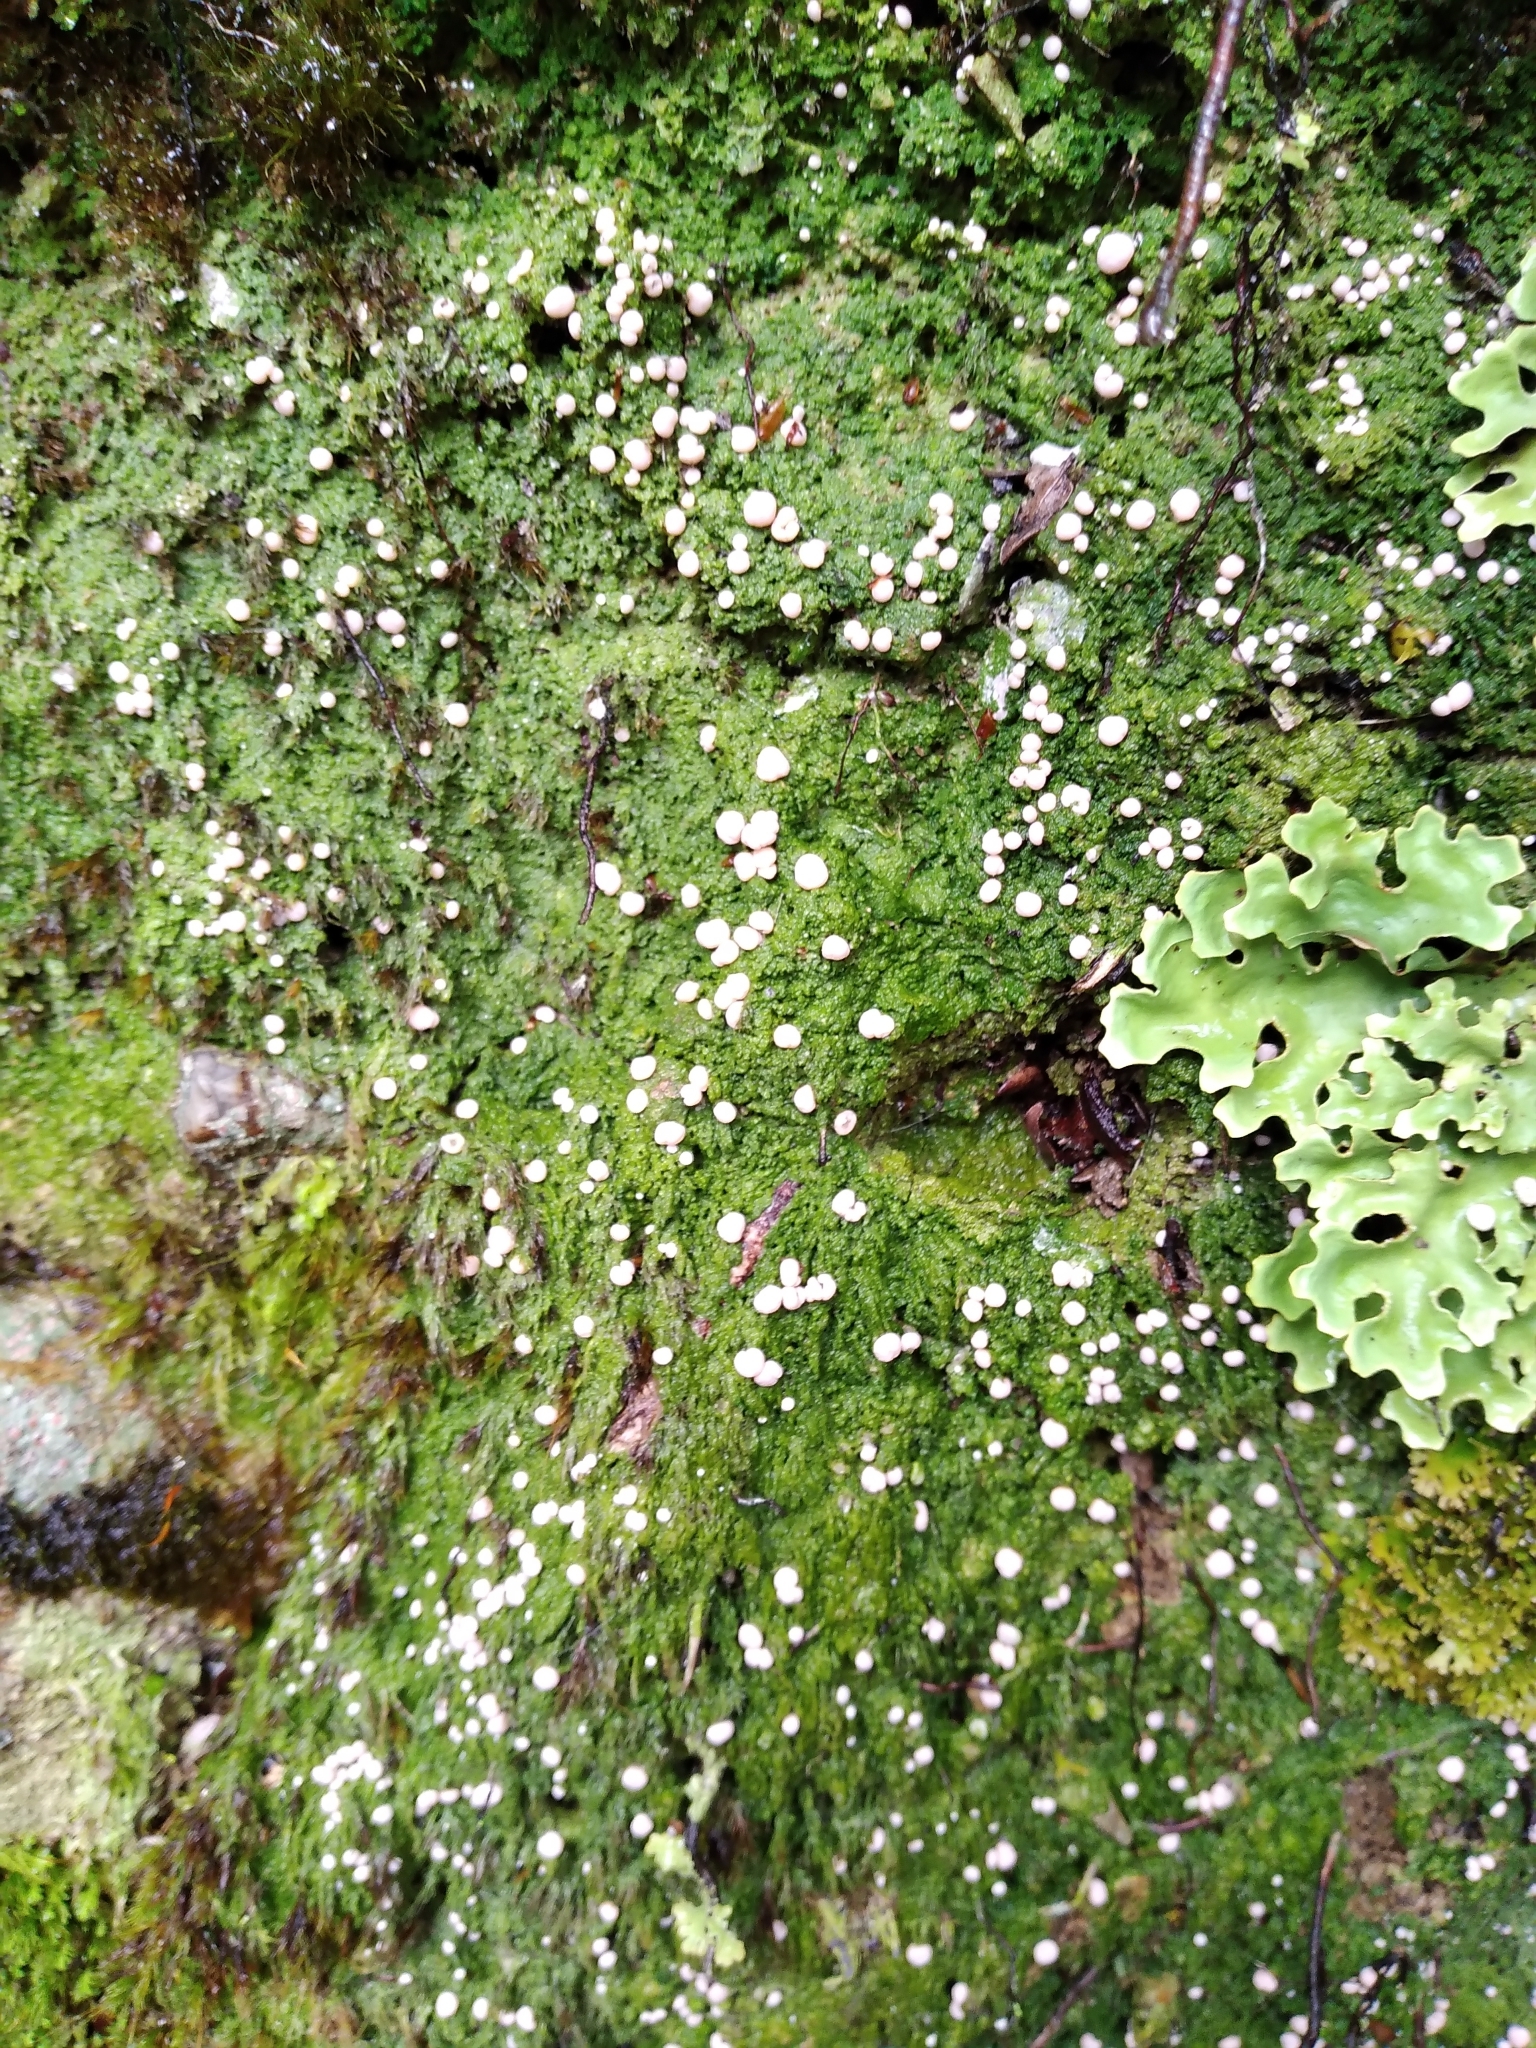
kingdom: Fungi
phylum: Ascomycota
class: Lecanoromycetes
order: Pertusariales
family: Icmadophilaceae
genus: Dibaeis
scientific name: Dibaeis absoluta
